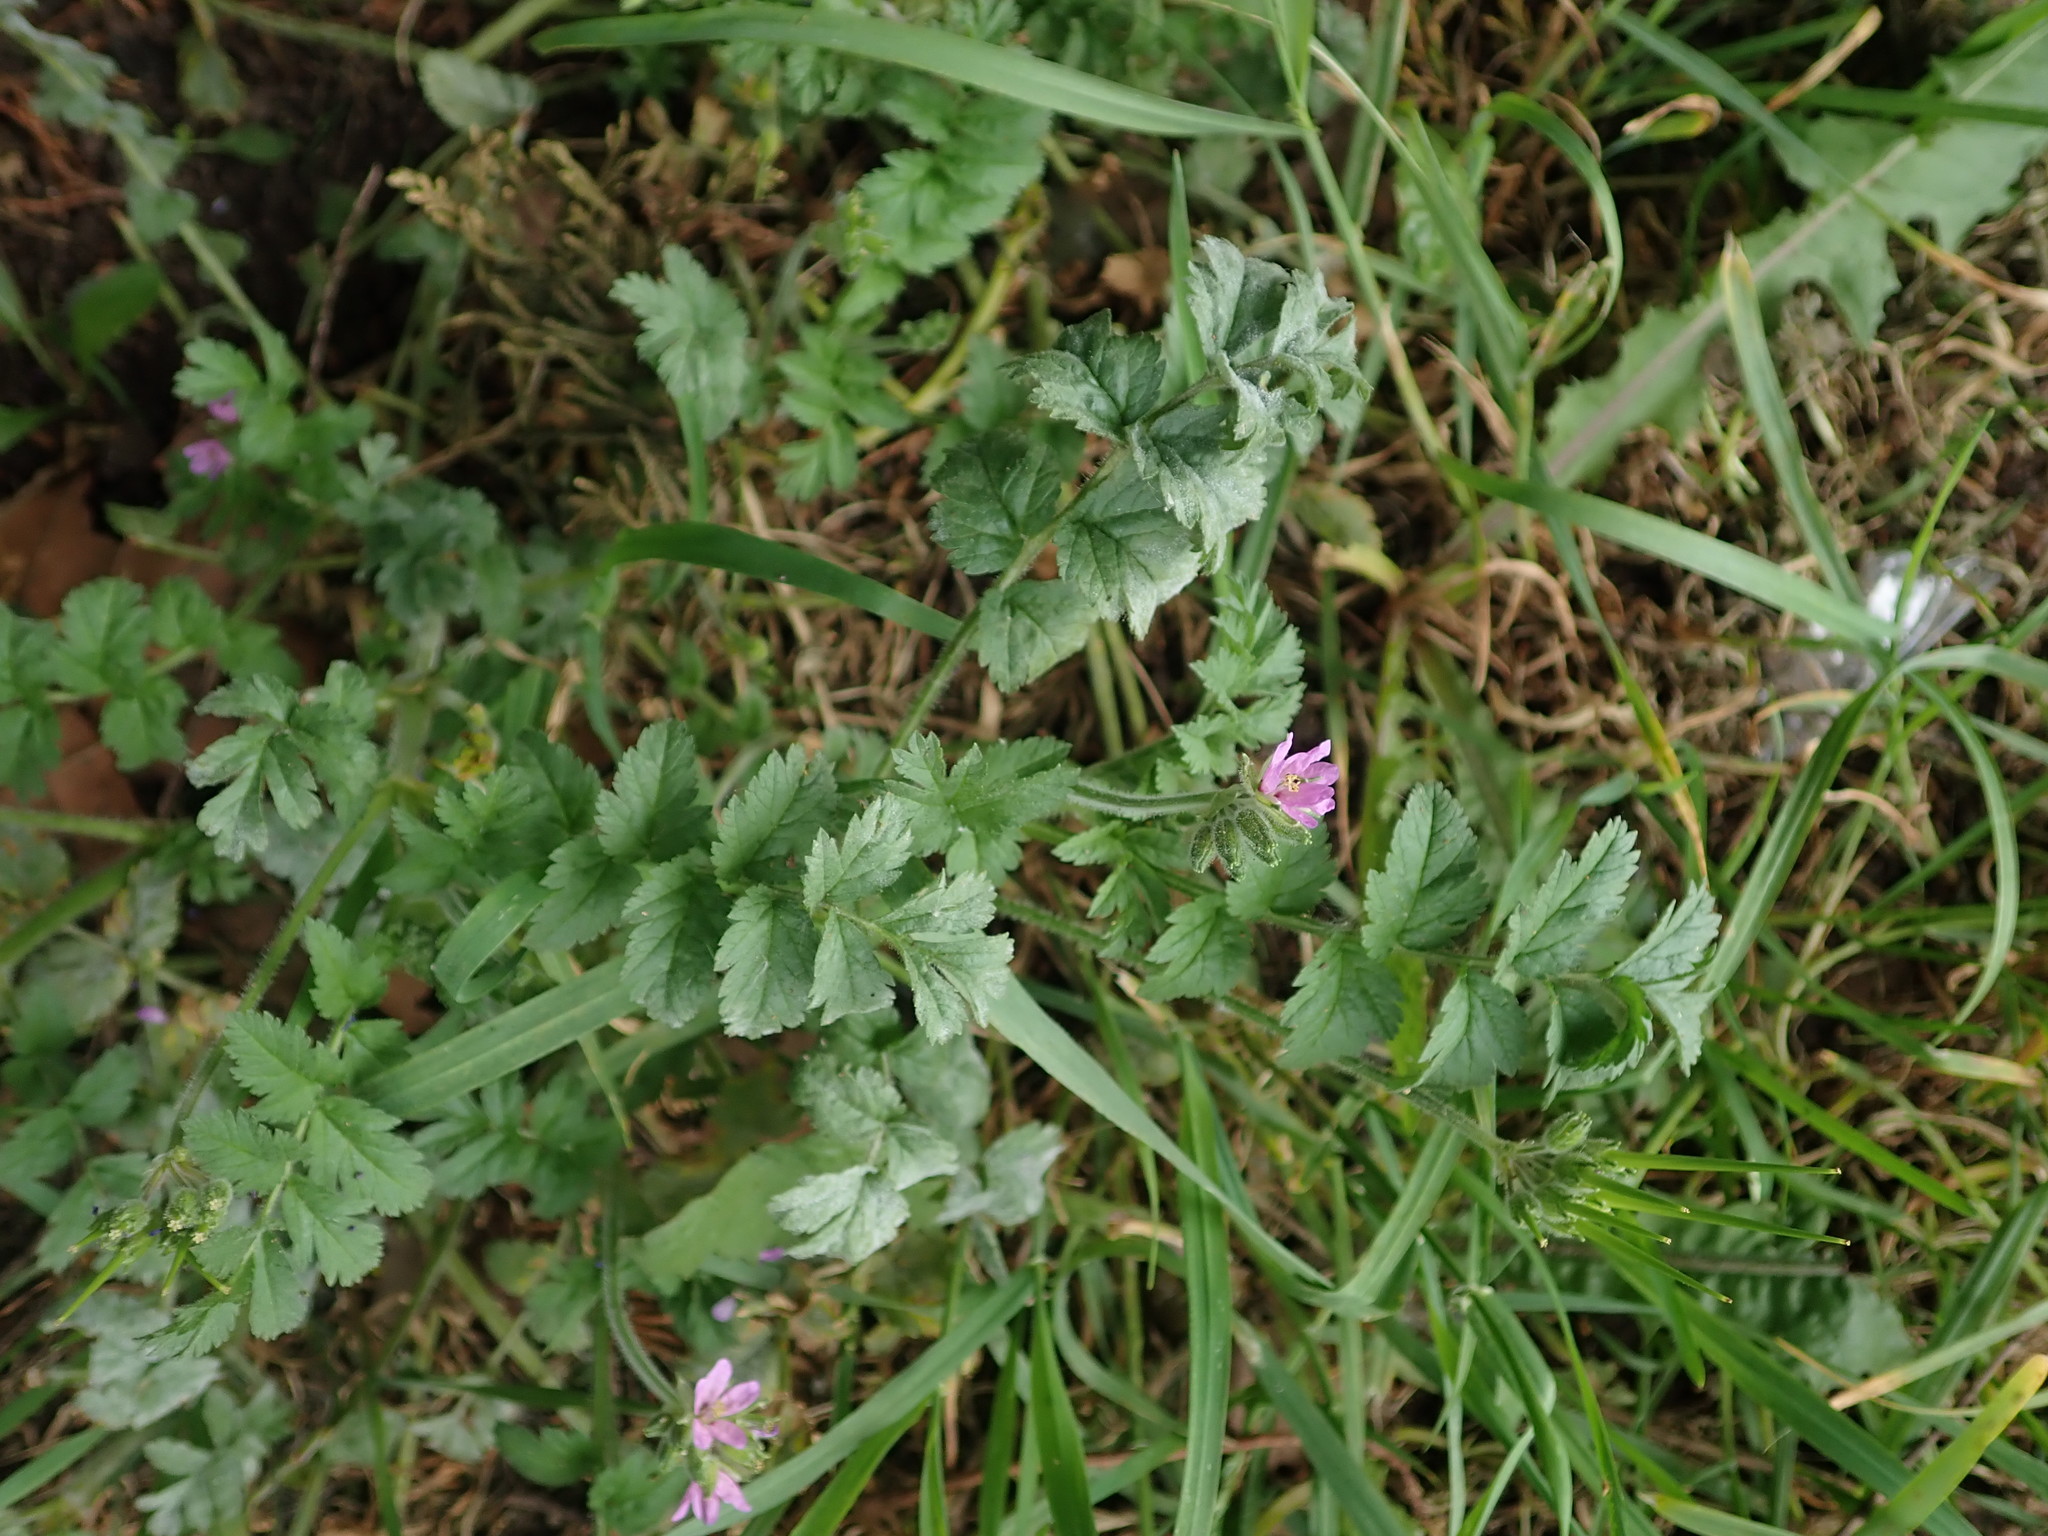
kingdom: Plantae
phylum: Tracheophyta
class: Magnoliopsida
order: Geraniales
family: Geraniaceae
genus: Erodium
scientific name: Erodium moschatum
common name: Musk stork's-bill
